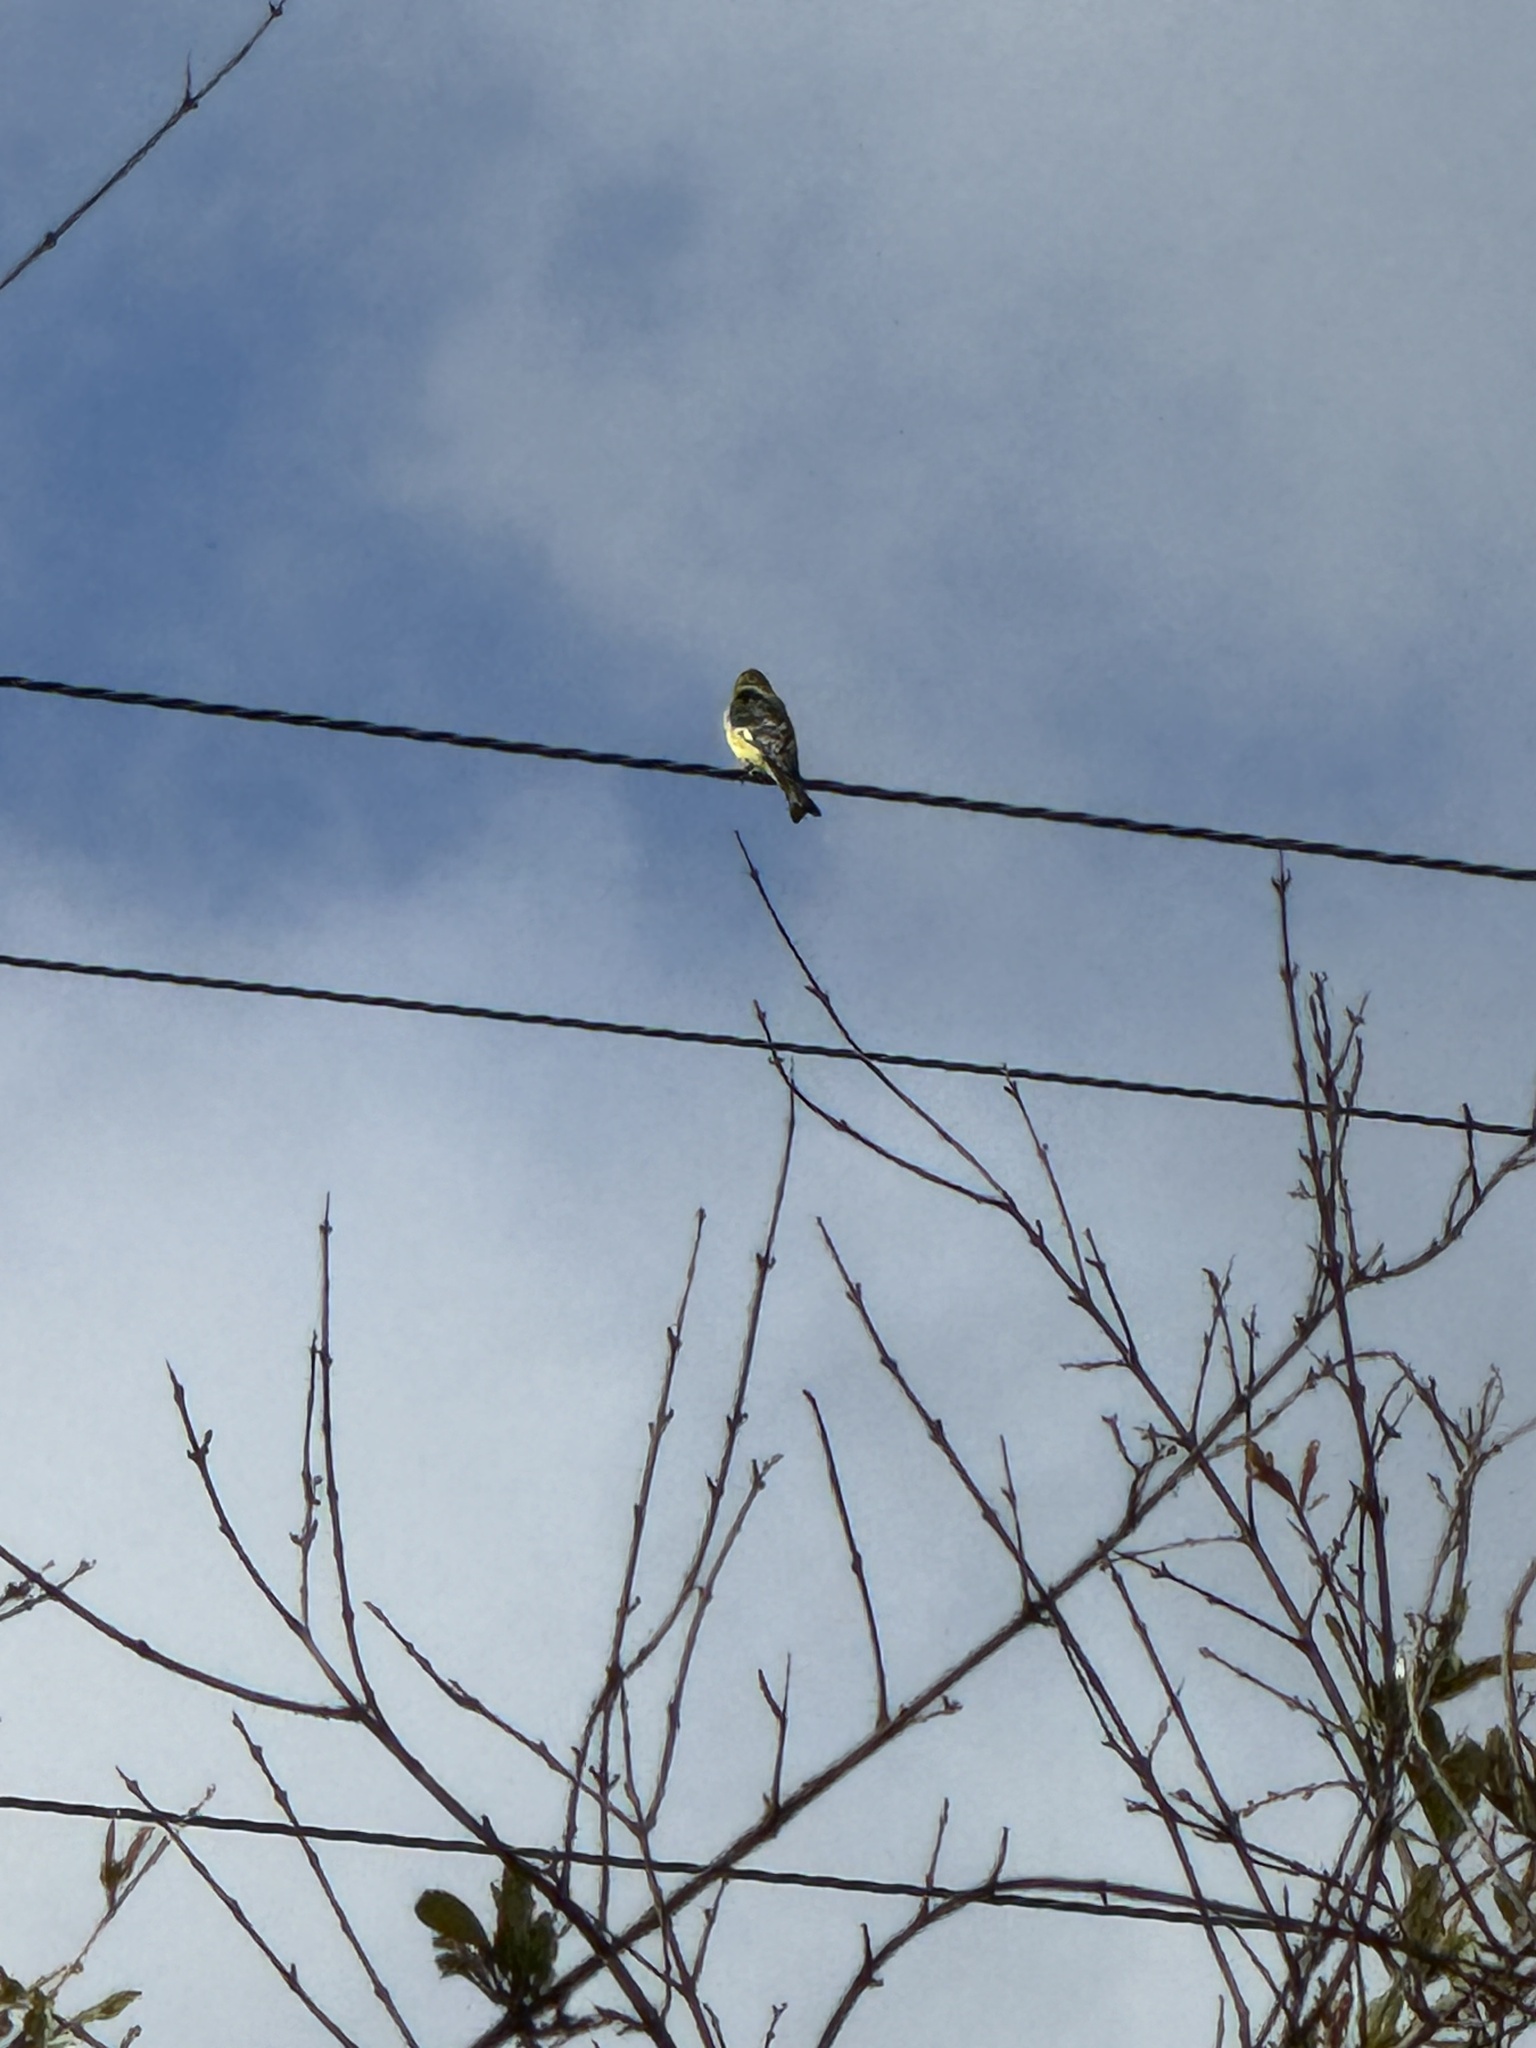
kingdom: Animalia
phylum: Chordata
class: Aves
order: Passeriformes
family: Fringillidae
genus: Spinus
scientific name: Spinus psaltria
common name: Lesser goldfinch
